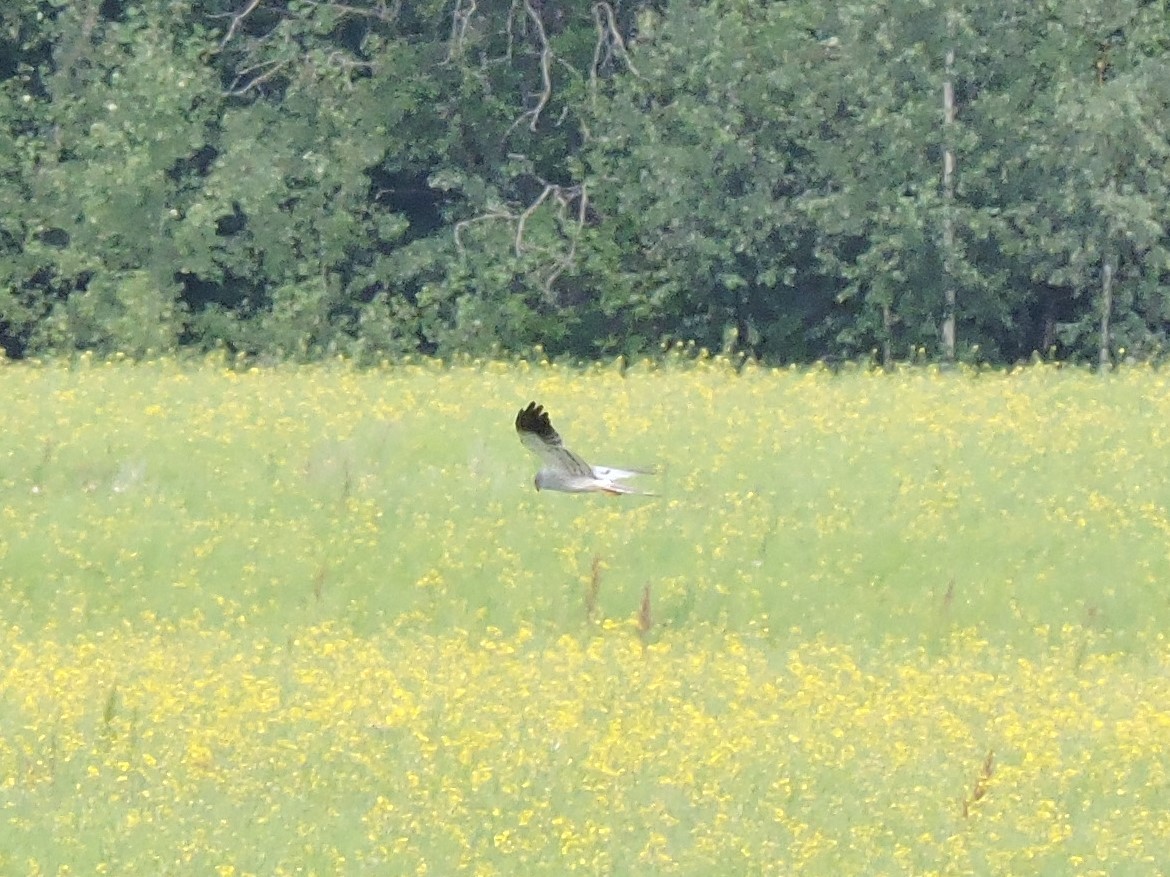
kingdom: Animalia
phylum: Chordata
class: Aves
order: Accipitriformes
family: Accipitridae
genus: Circus
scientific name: Circus pygargus
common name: Montagu's harrier
